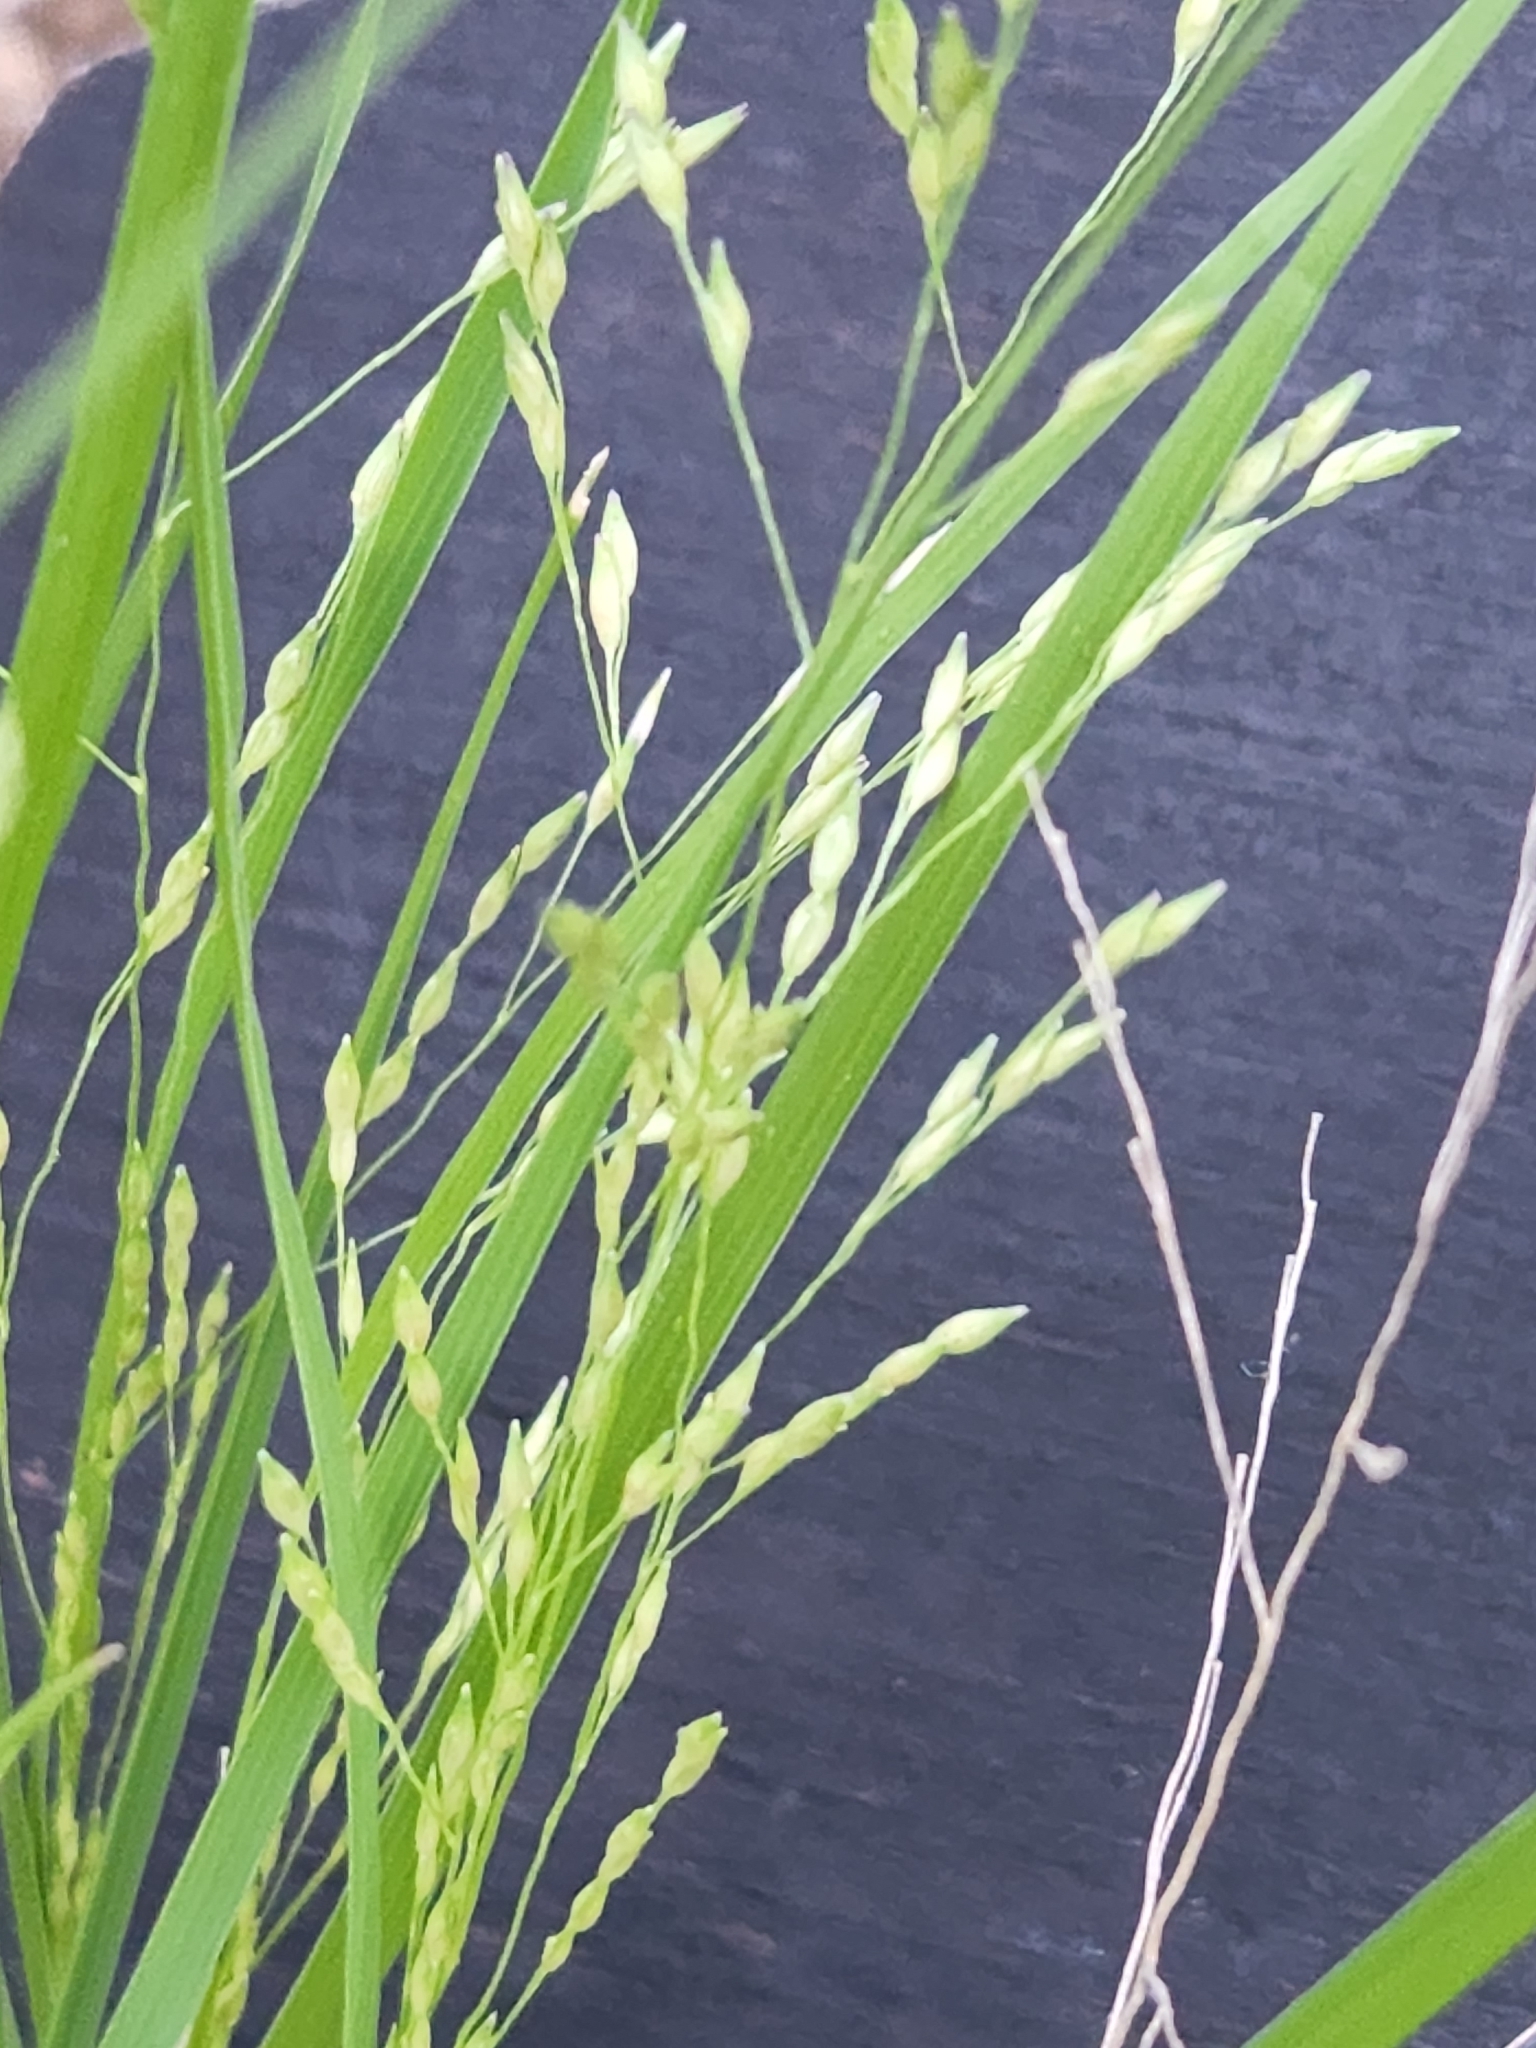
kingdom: Plantae
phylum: Tracheophyta
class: Liliopsida
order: Poales
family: Poaceae
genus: Panicum
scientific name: Panicum hallii
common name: Hall's witchgrass
